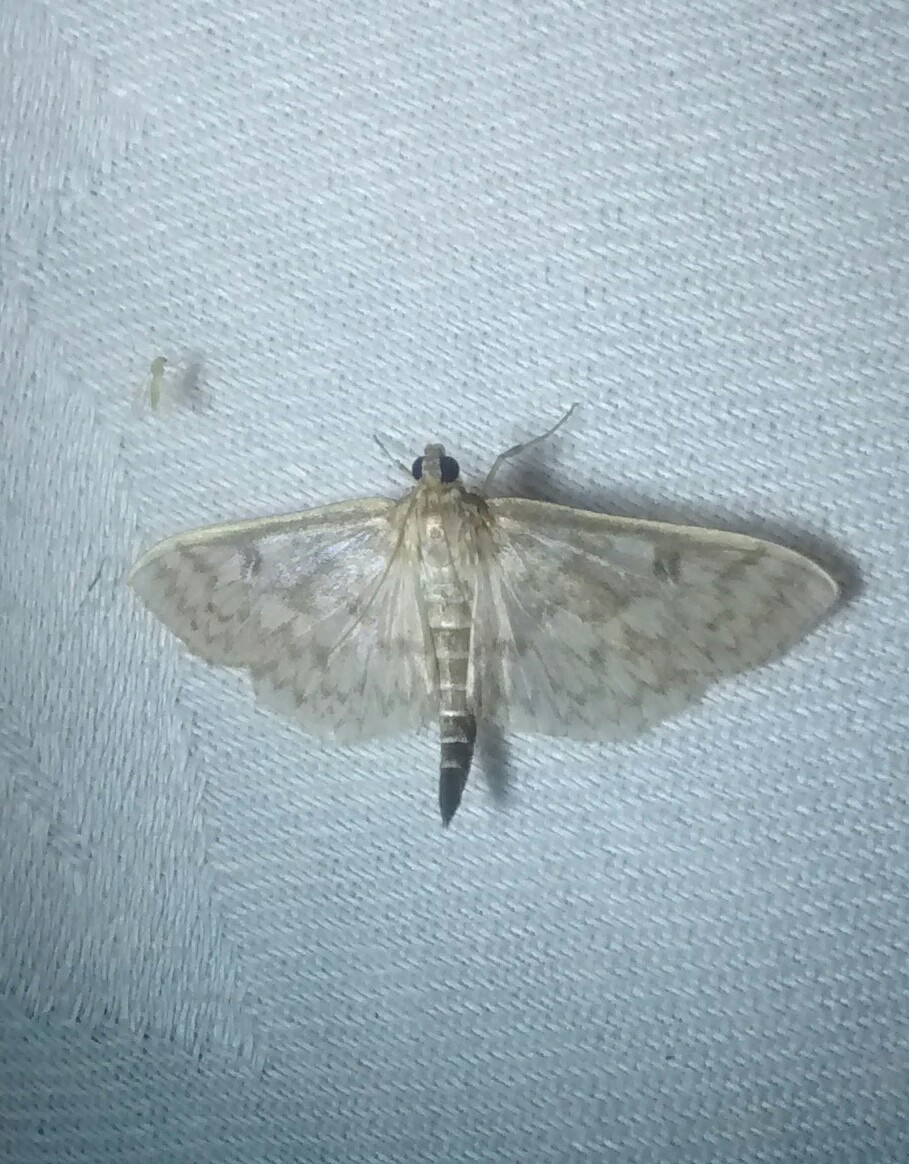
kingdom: Animalia
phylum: Arthropoda
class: Insecta
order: Lepidoptera
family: Crambidae
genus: Herpetogramma
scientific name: Herpetogramma pertextalis
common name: Bold-feathered grass moth
